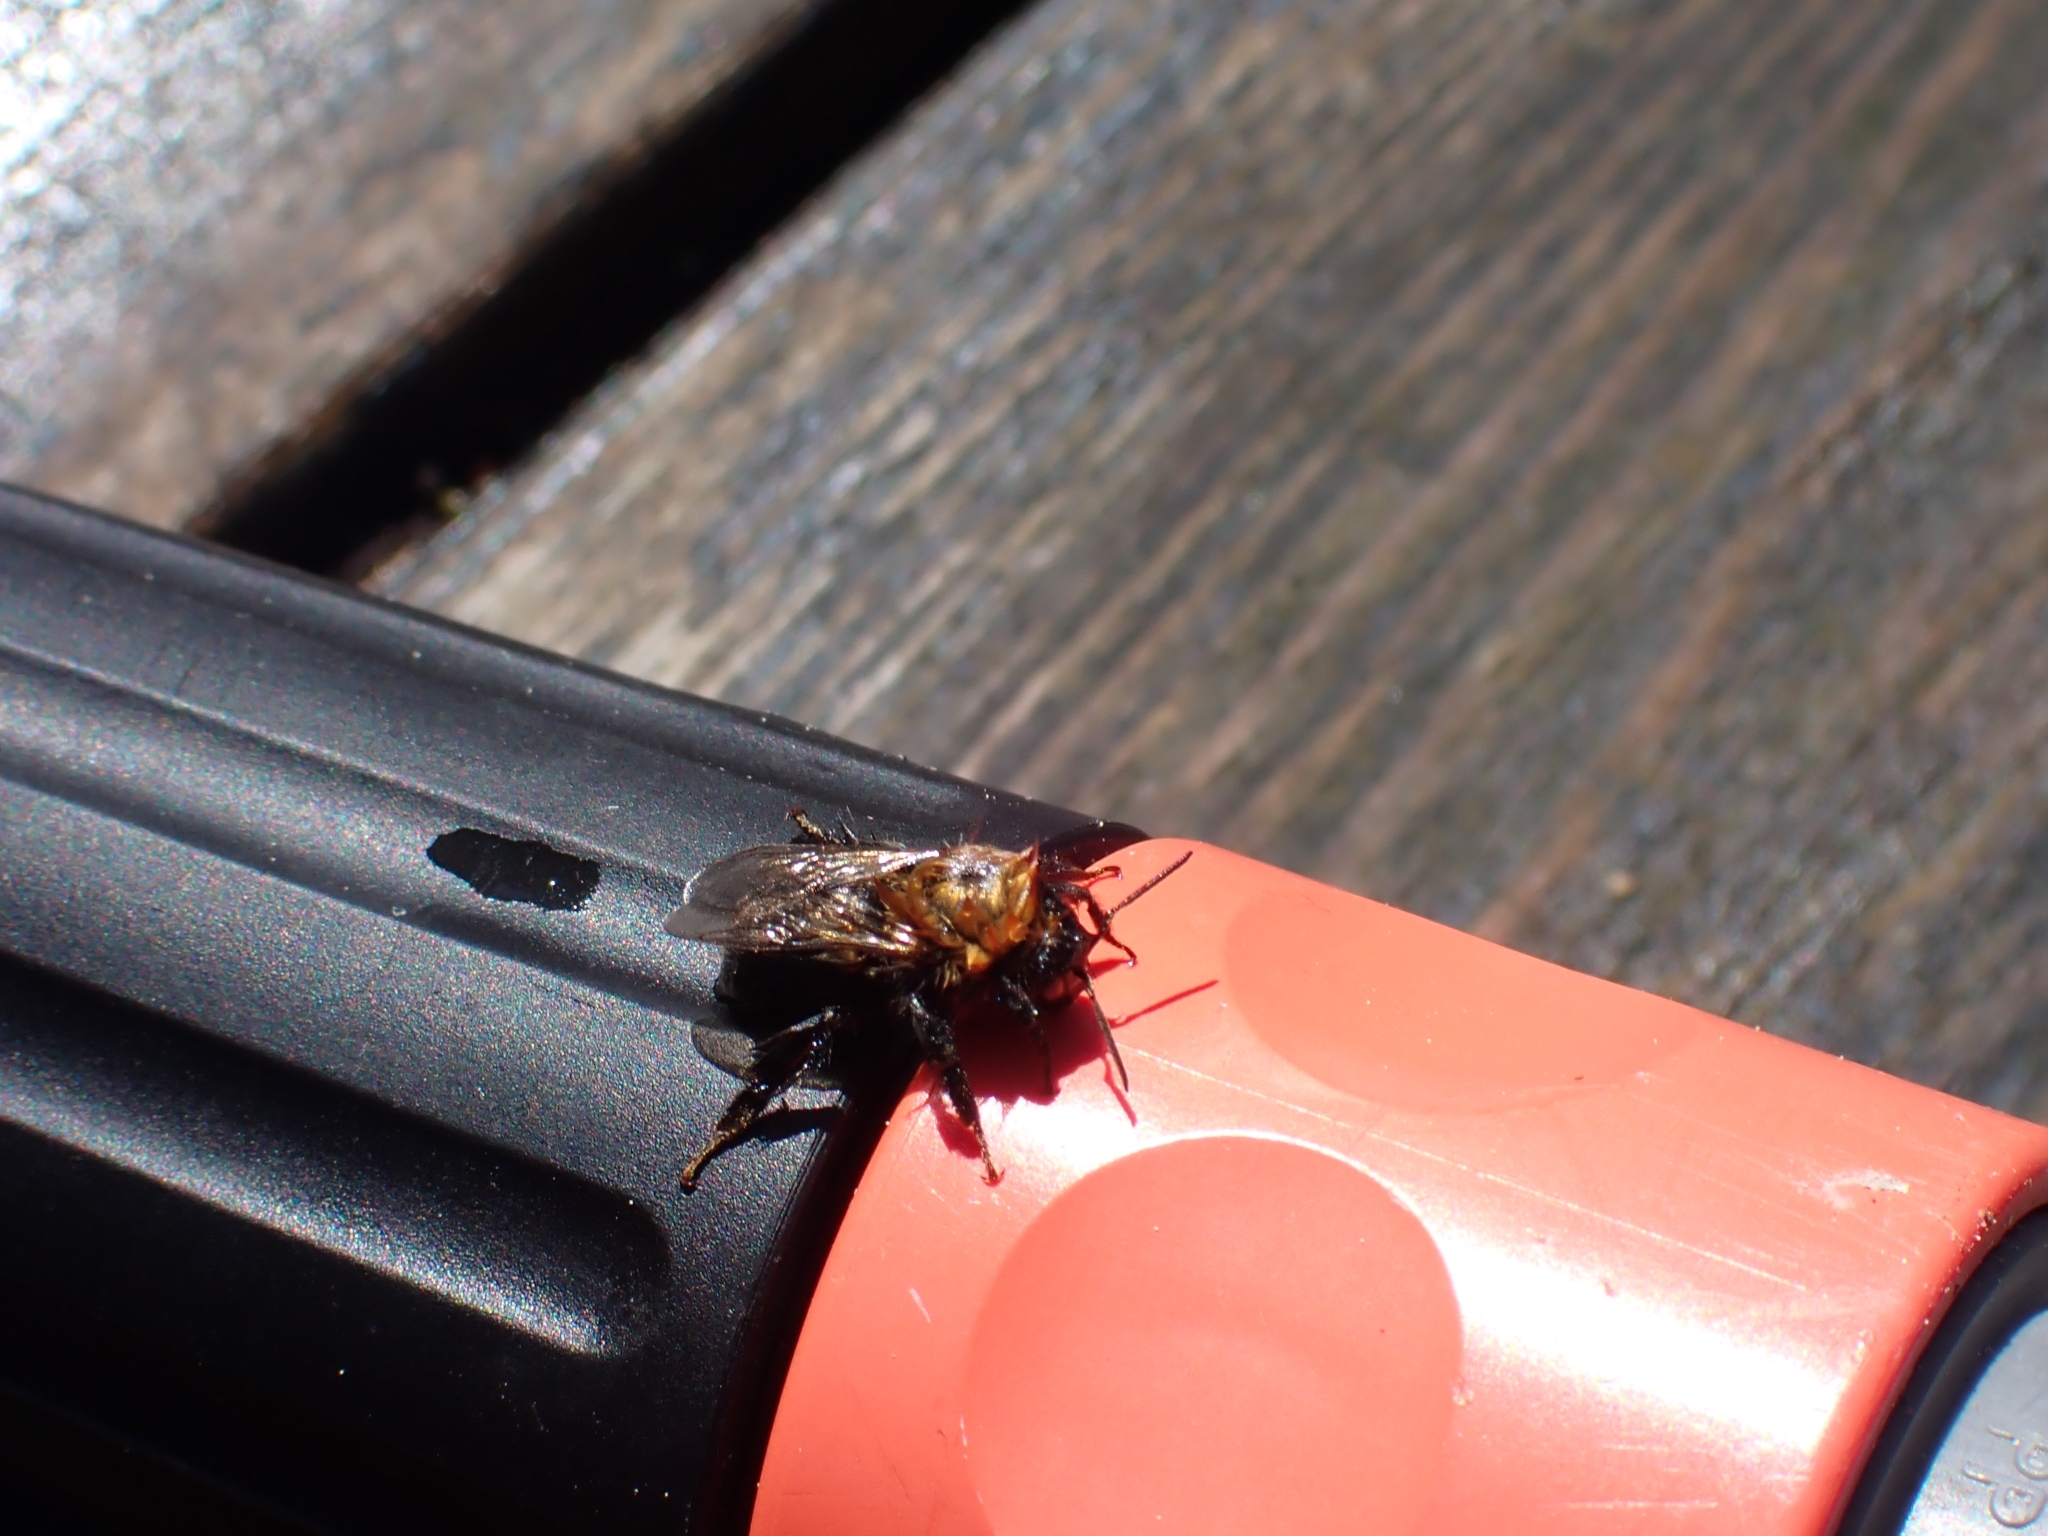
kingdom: Animalia
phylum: Arthropoda
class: Insecta
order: Hymenoptera
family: Apidae
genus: Bombus
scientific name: Bombus hypnorum
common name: New garden bumblebee
